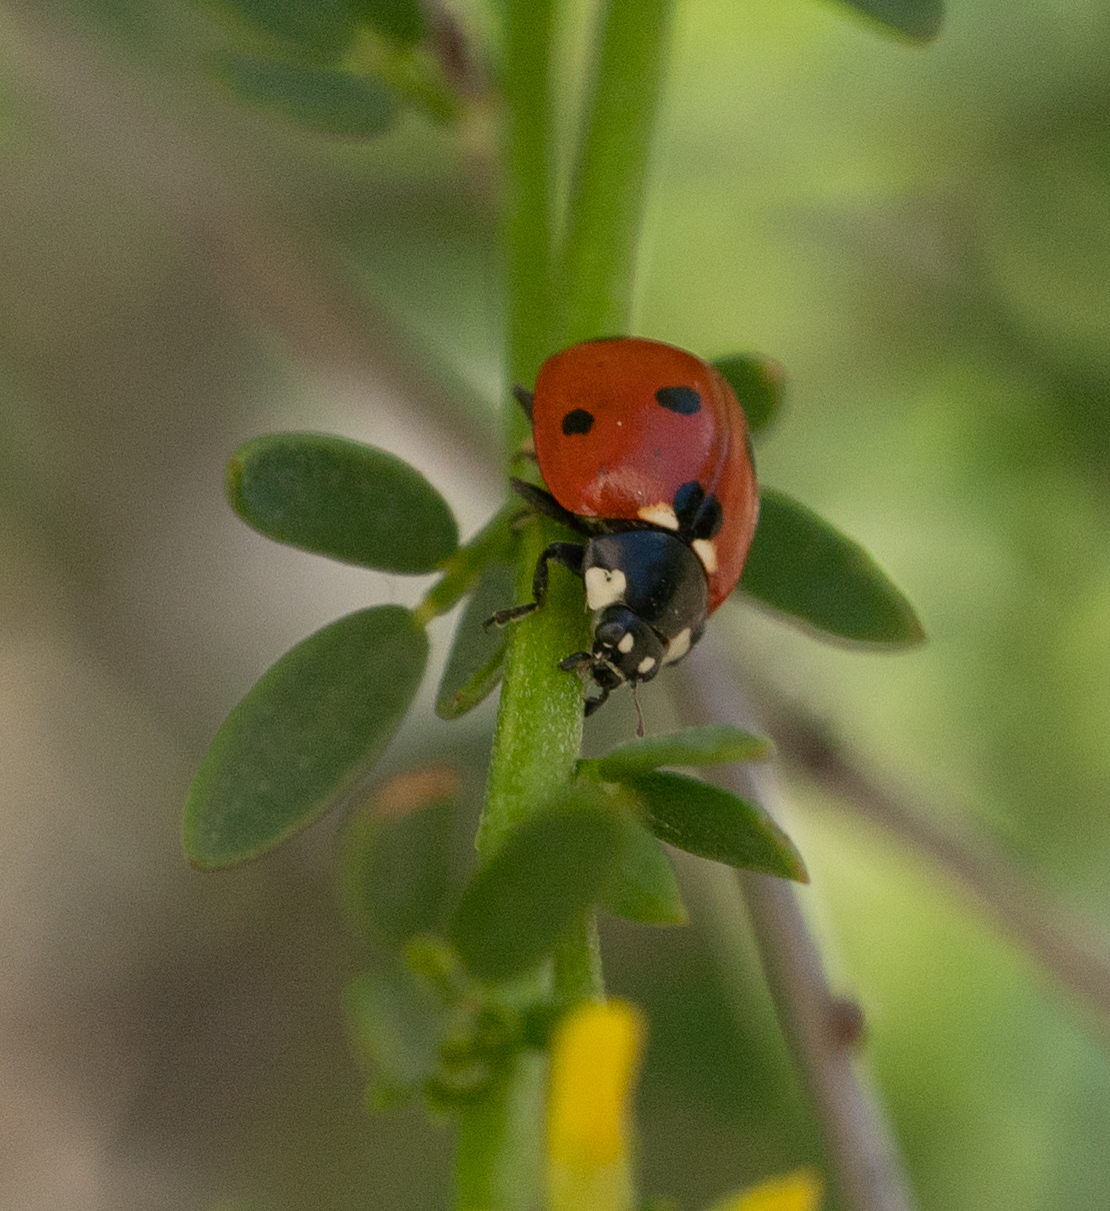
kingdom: Animalia
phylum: Arthropoda
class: Insecta
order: Coleoptera
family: Coccinellidae
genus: Coccinella
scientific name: Coccinella septempunctata
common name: Sevenspotted lady beetle
